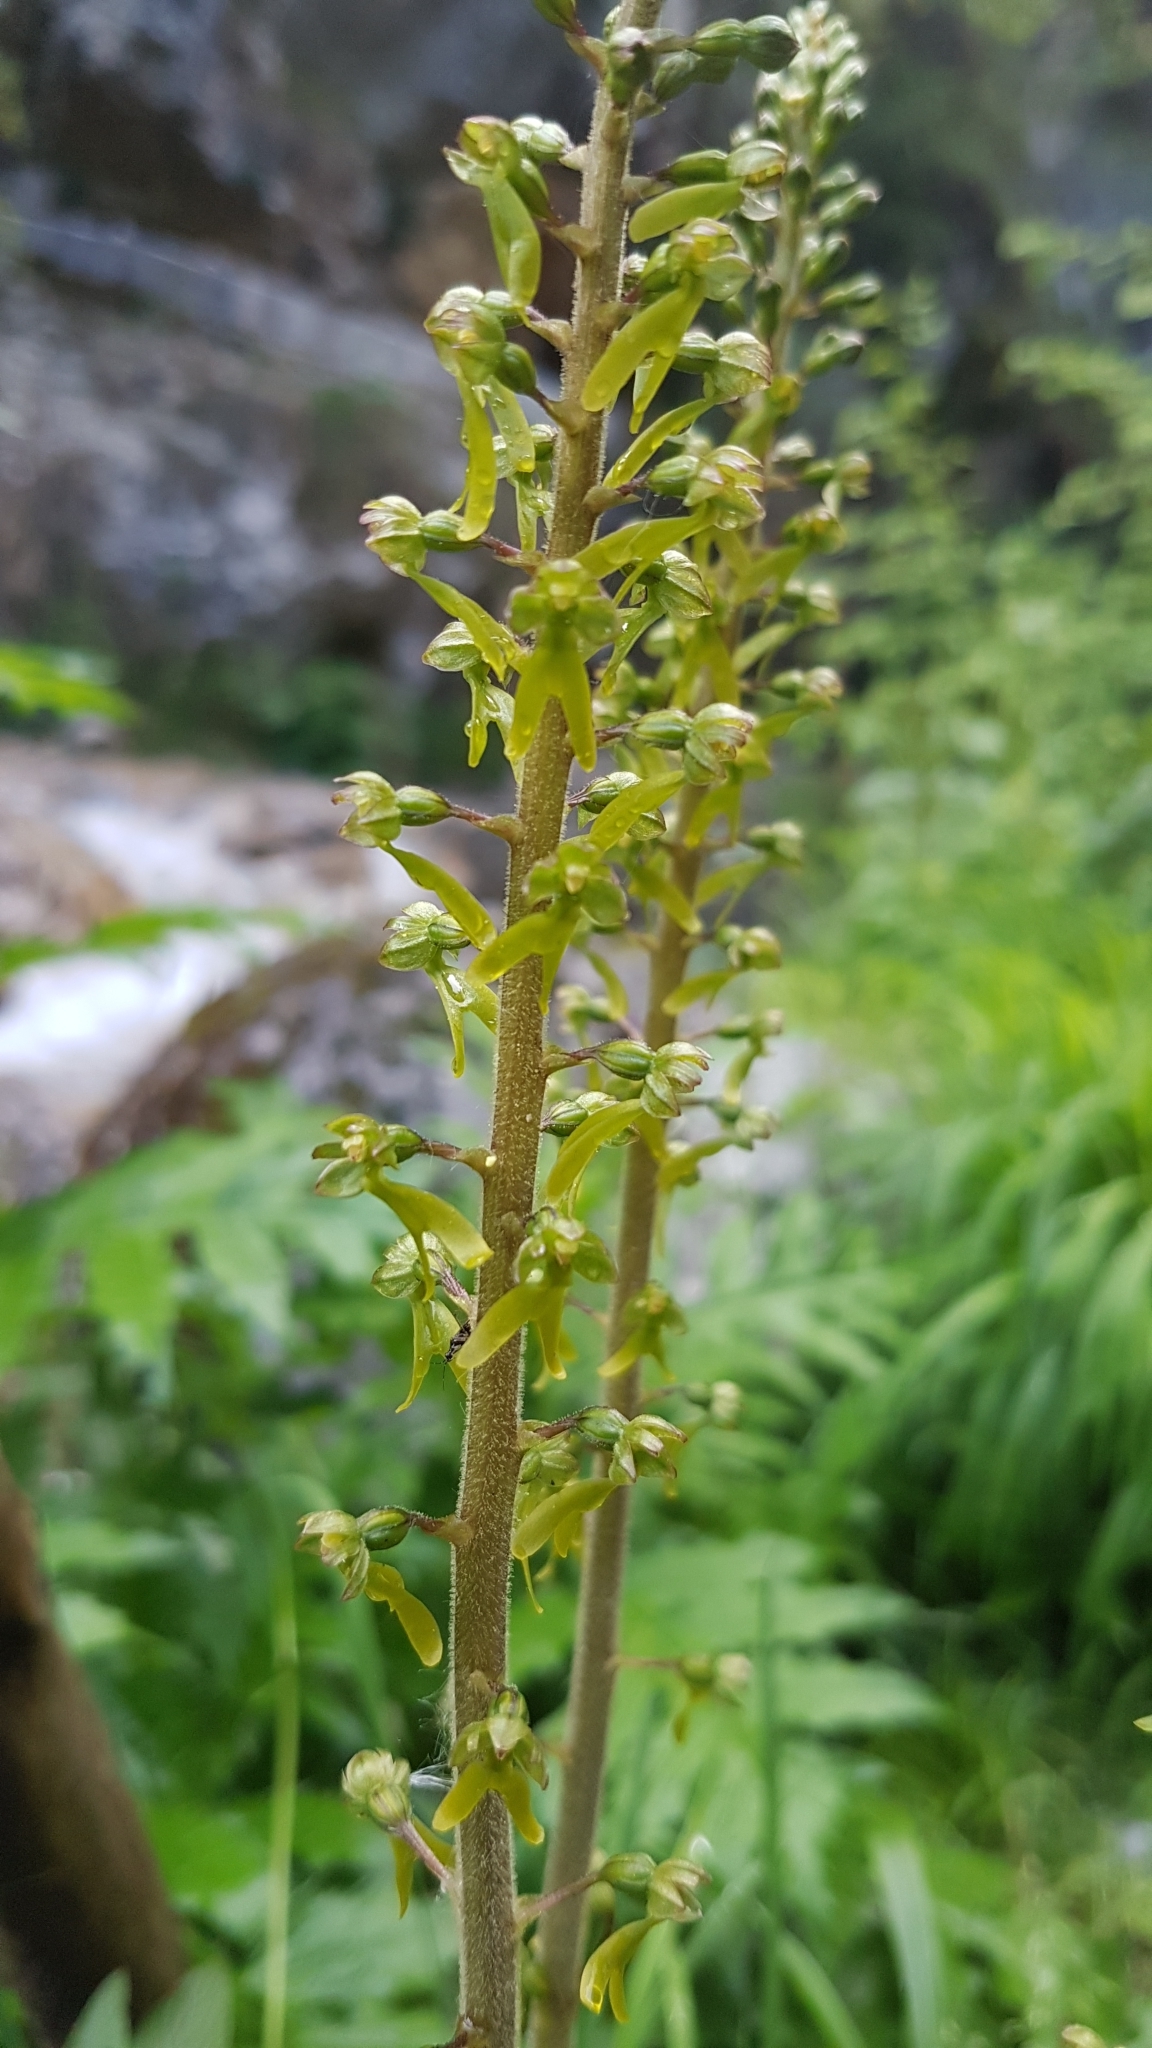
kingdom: Plantae
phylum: Tracheophyta
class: Liliopsida
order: Asparagales
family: Orchidaceae
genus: Neottia
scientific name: Neottia ovata
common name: Common twayblade
